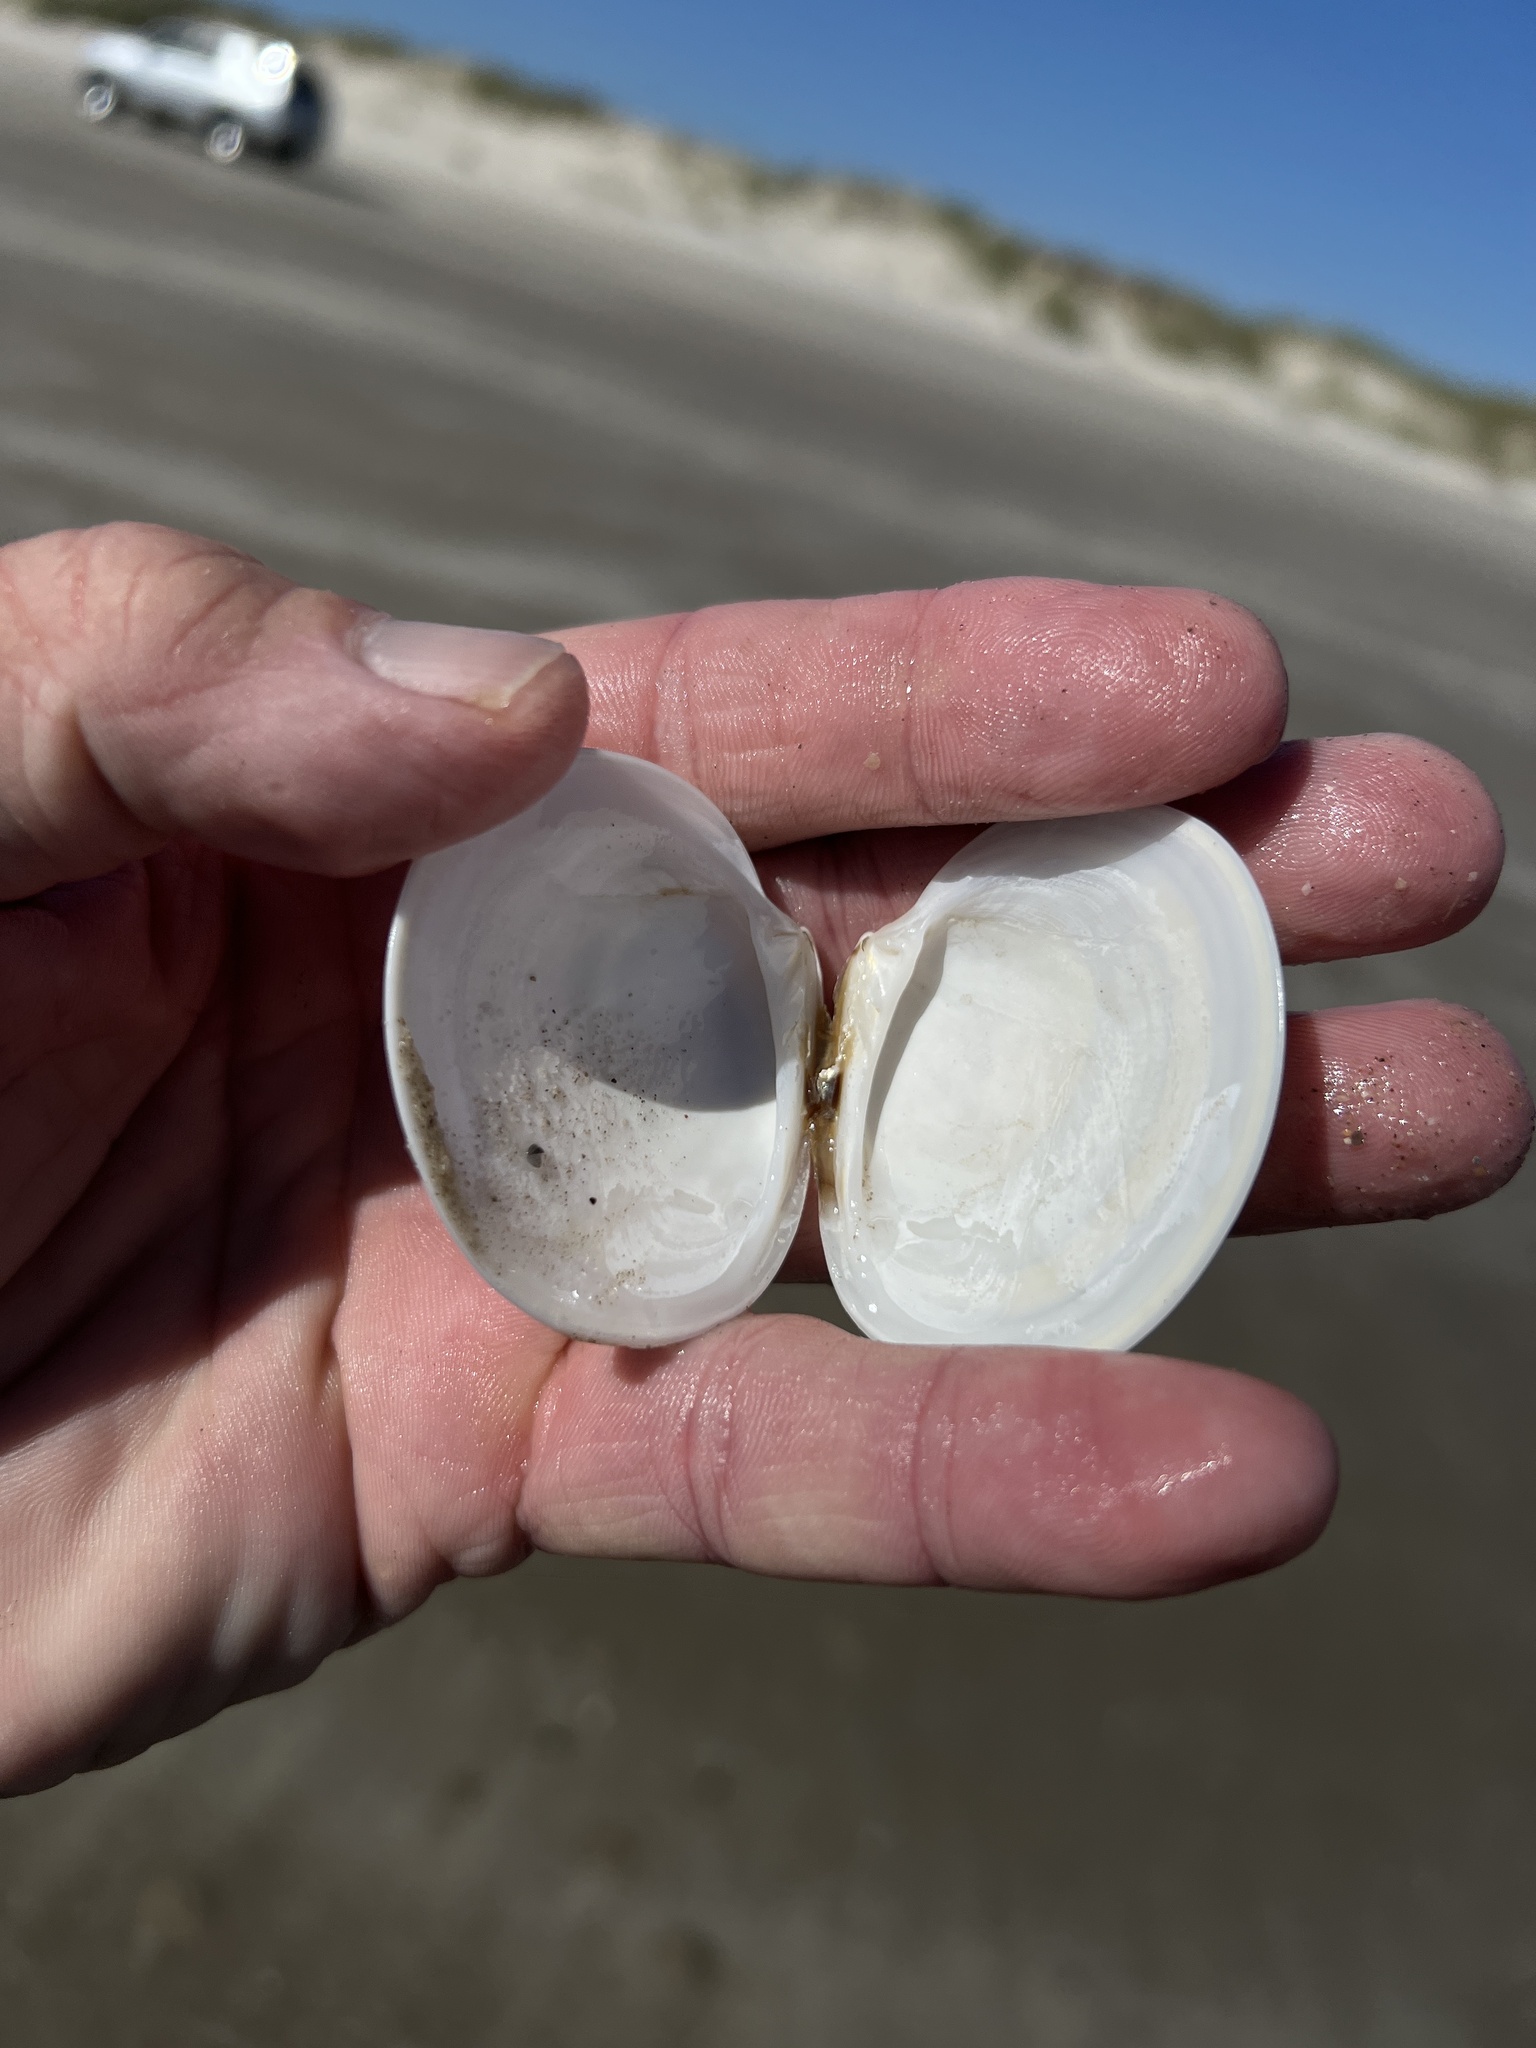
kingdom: Animalia
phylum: Mollusca
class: Bivalvia
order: Venerida
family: Veneridae
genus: Dosinia
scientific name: Dosinia discus
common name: Disk dosinia
